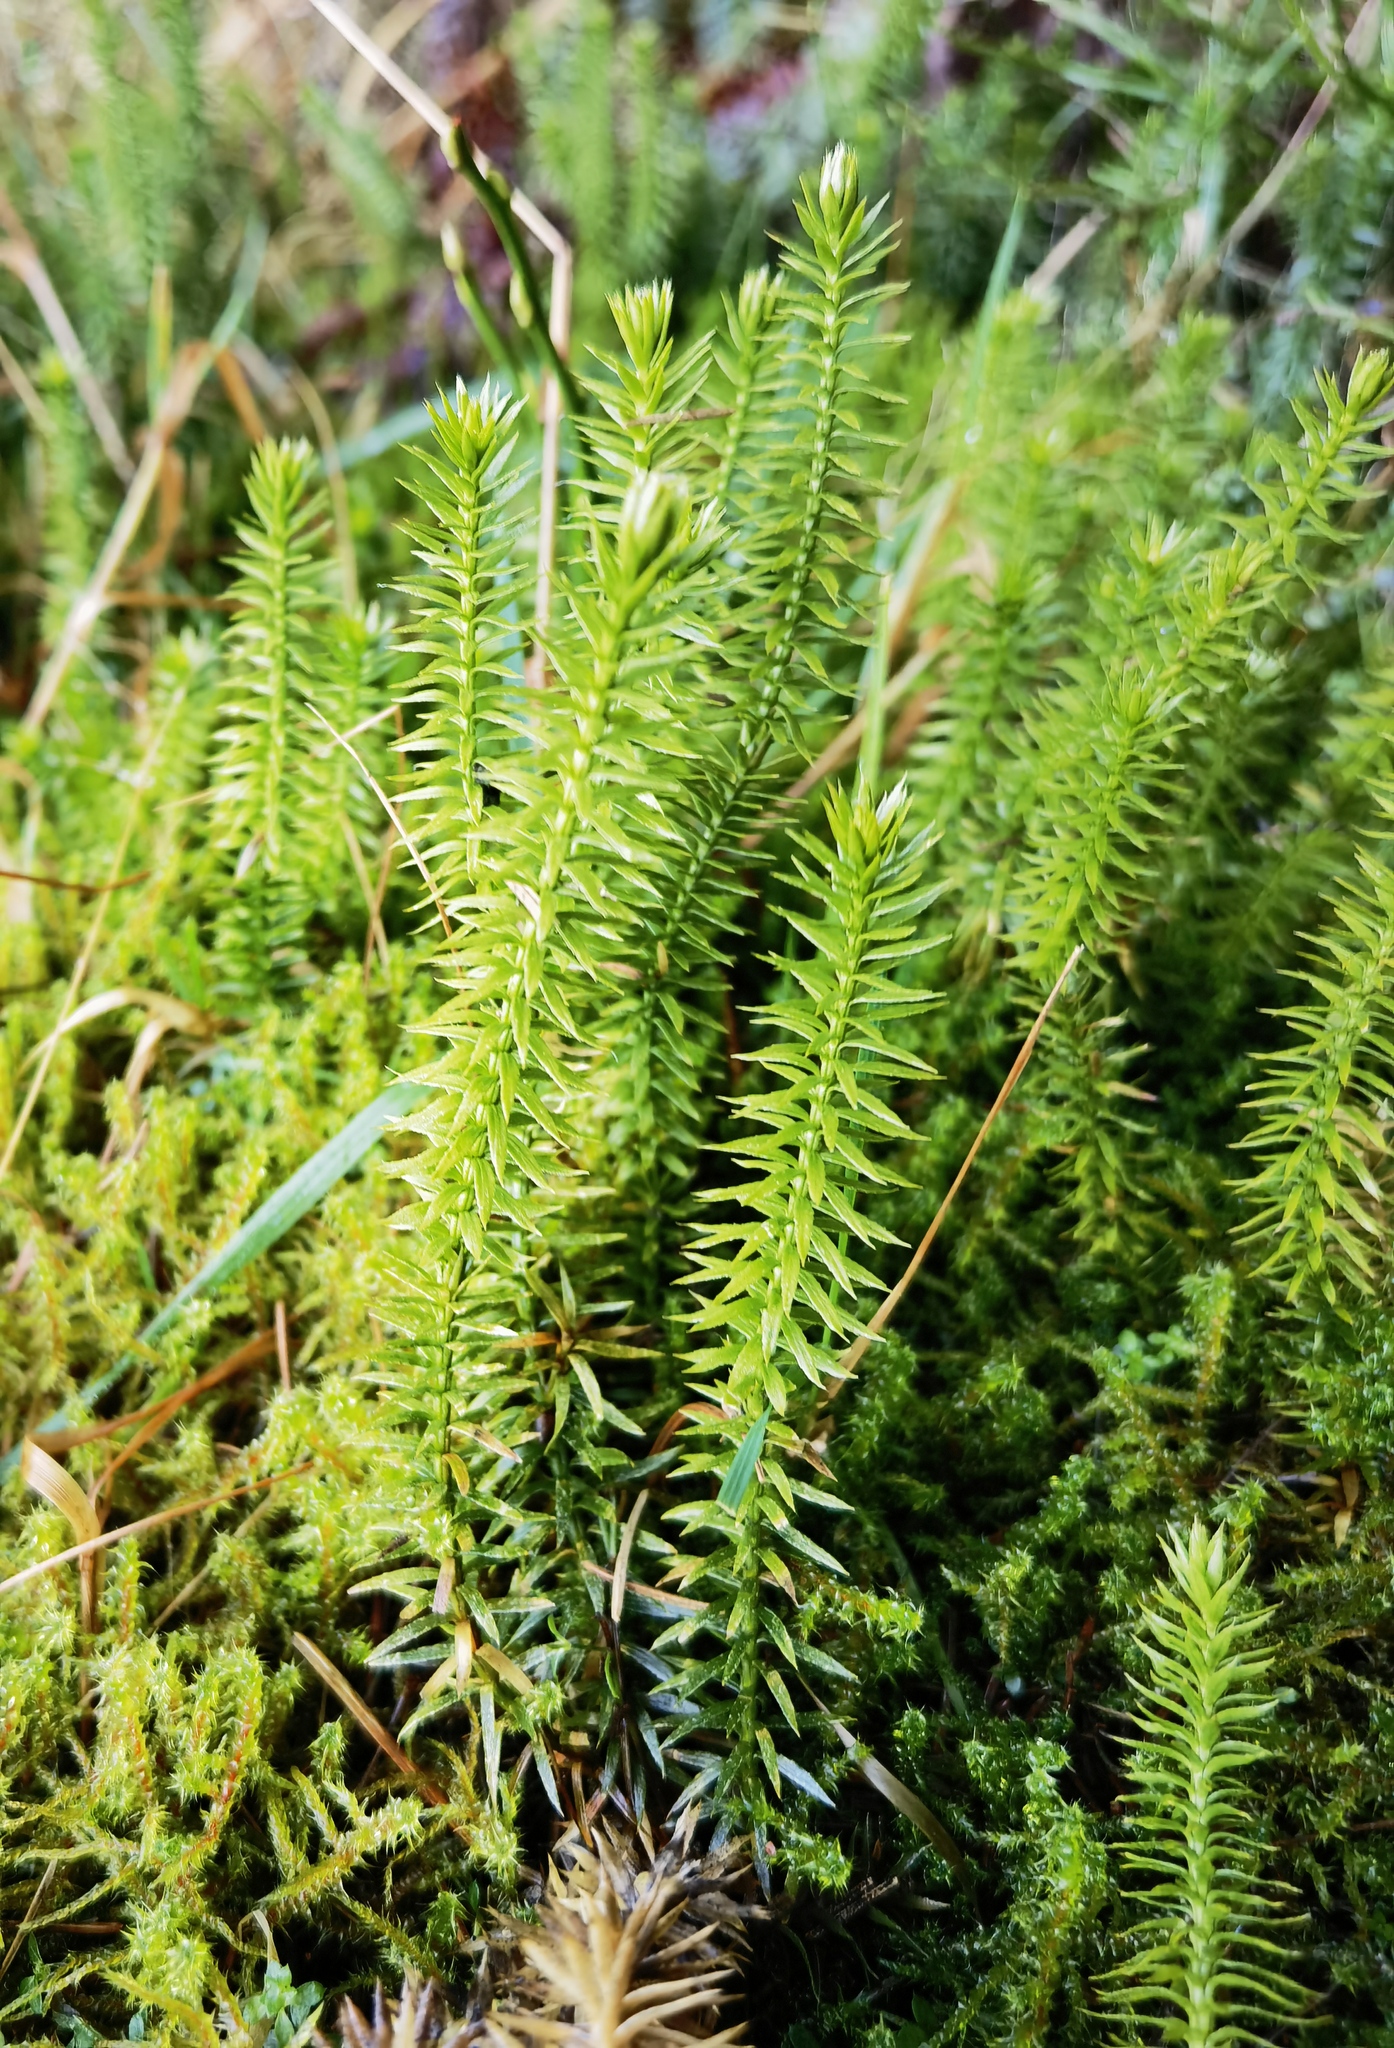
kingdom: Plantae
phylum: Tracheophyta
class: Lycopodiopsida
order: Lycopodiales
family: Lycopodiaceae
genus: Spinulum
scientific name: Spinulum annotinum
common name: Interrupted club-moss
